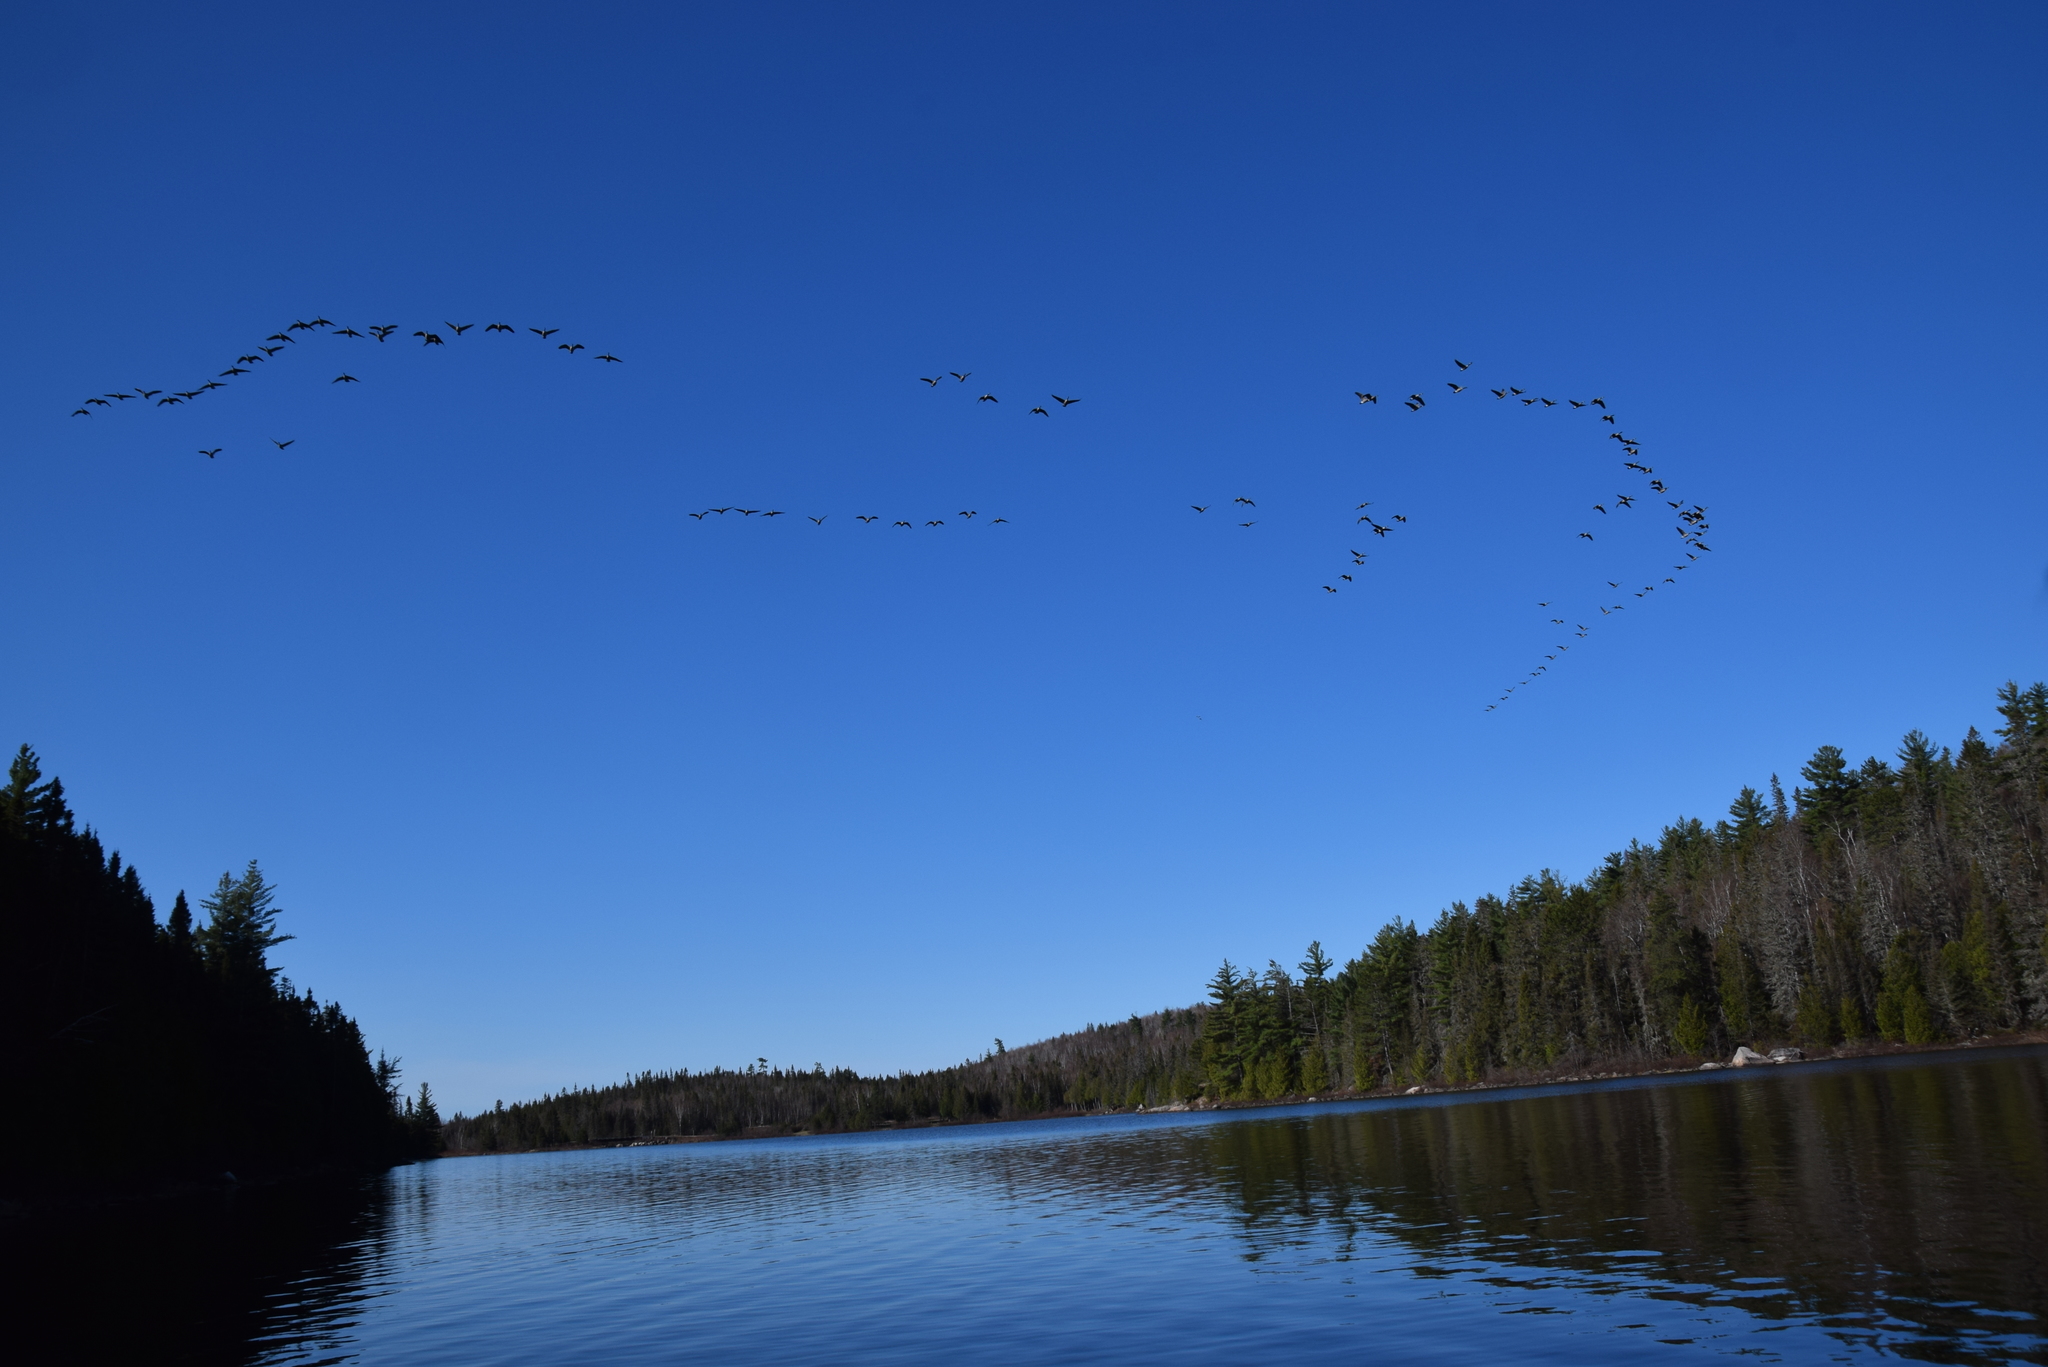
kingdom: Animalia
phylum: Chordata
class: Aves
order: Anseriformes
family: Anatidae
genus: Branta
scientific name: Branta canadensis
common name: Canada goose
